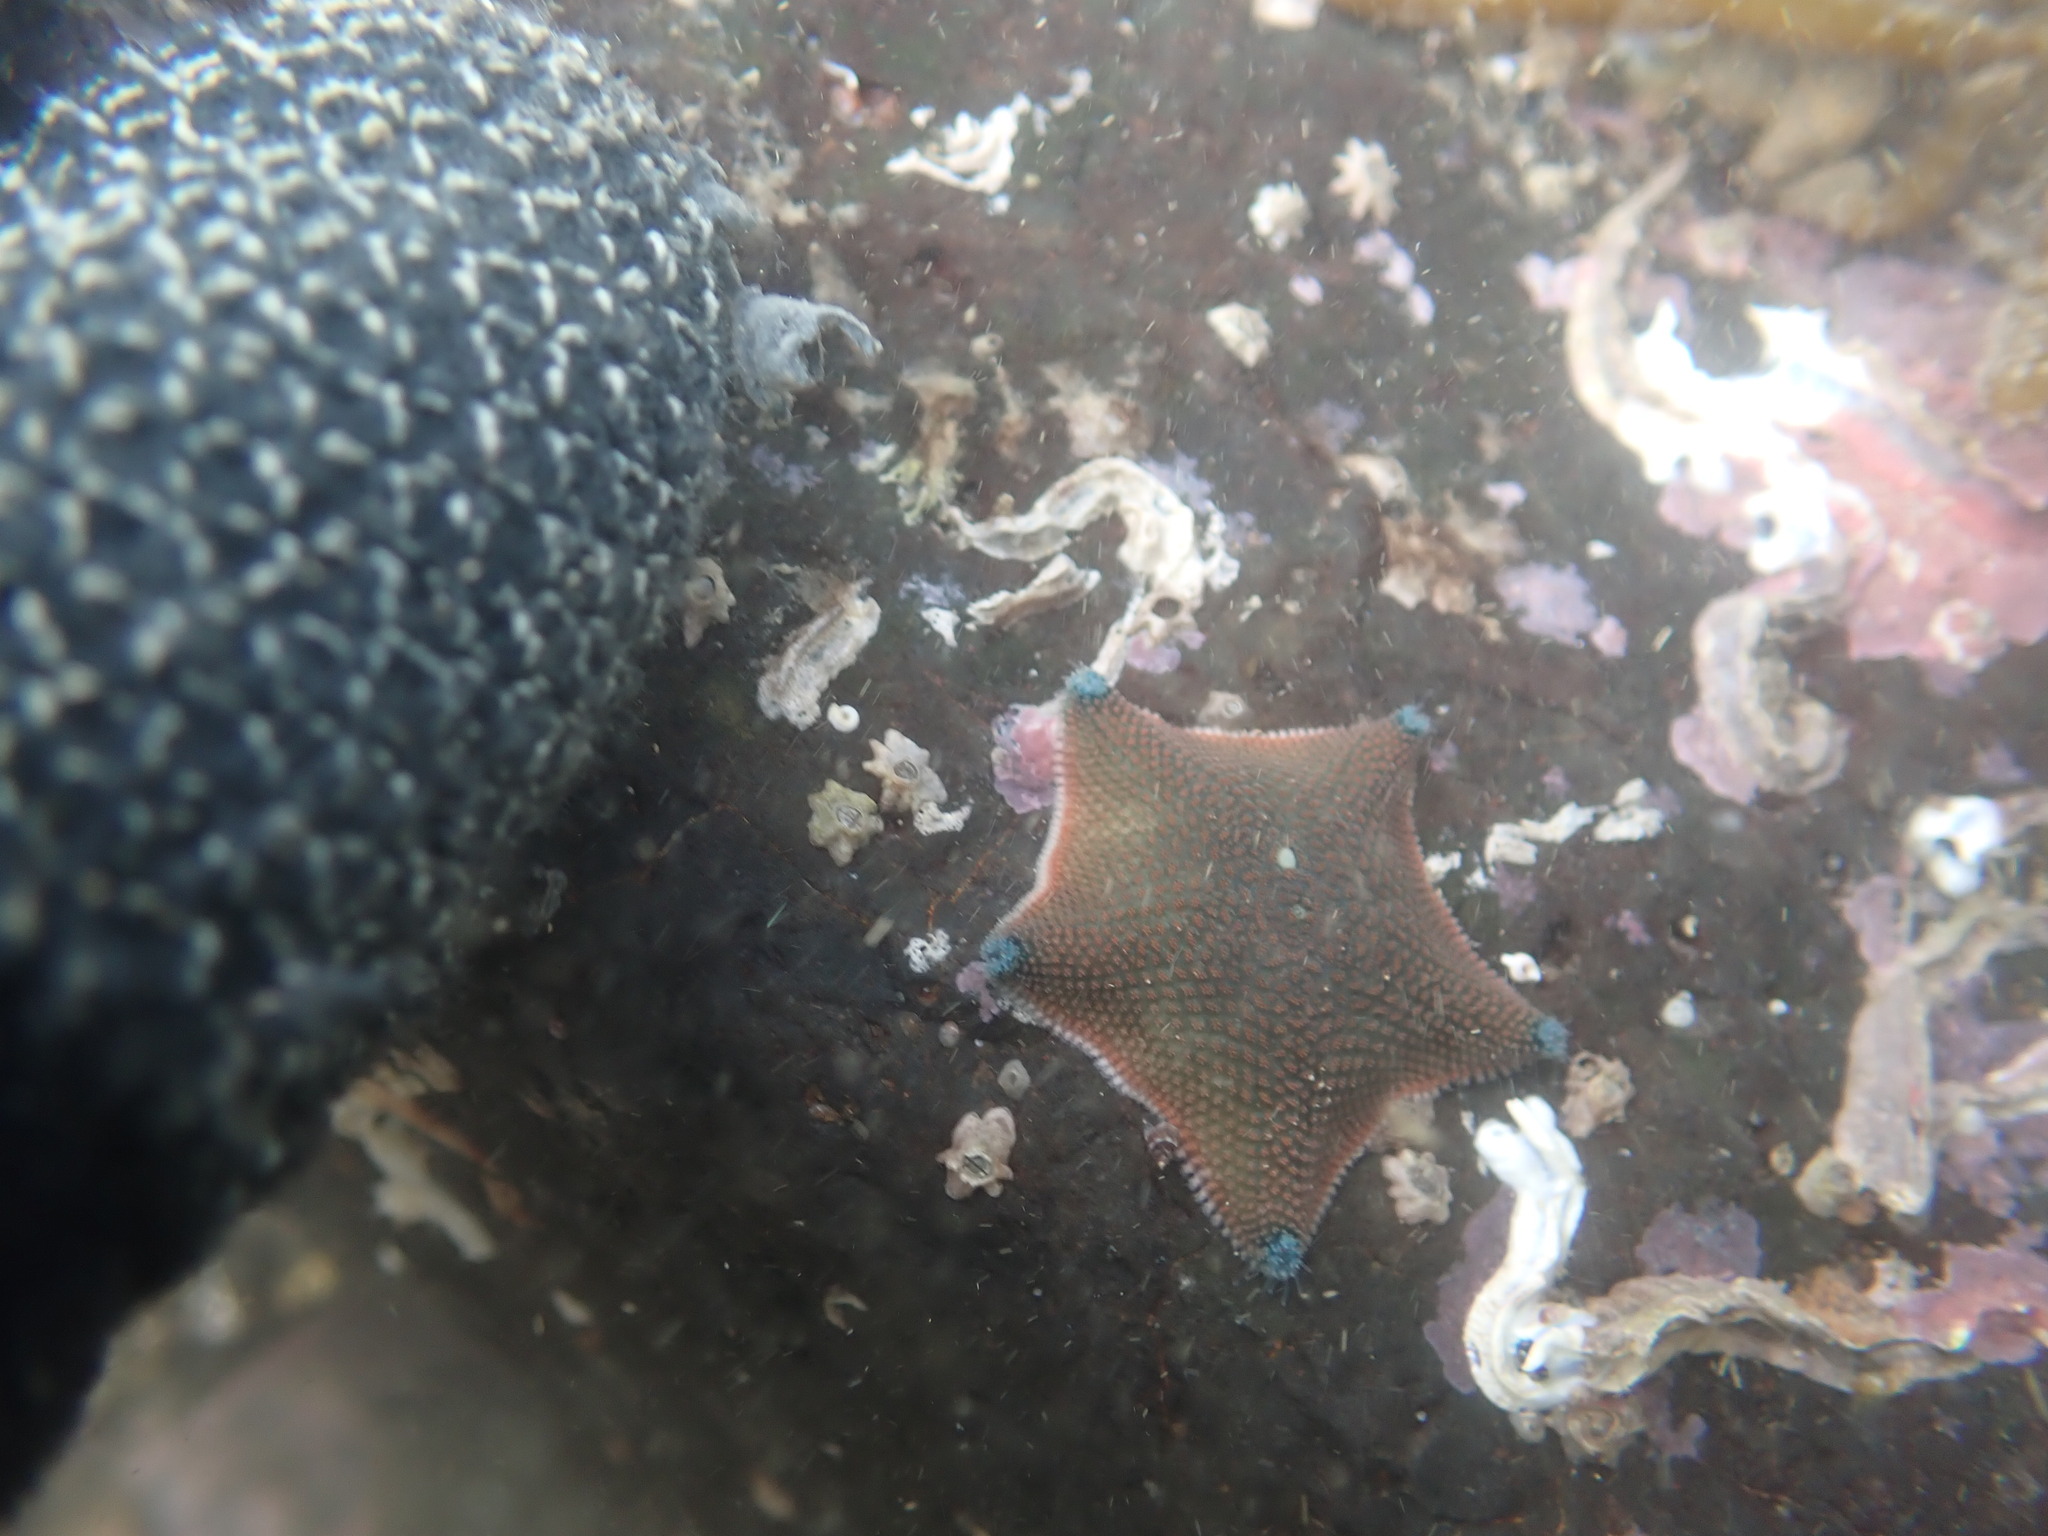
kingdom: Animalia
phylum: Echinodermata
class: Asteroidea
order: Valvatida
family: Asterinidae
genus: Patiriella
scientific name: Patiriella regularis
